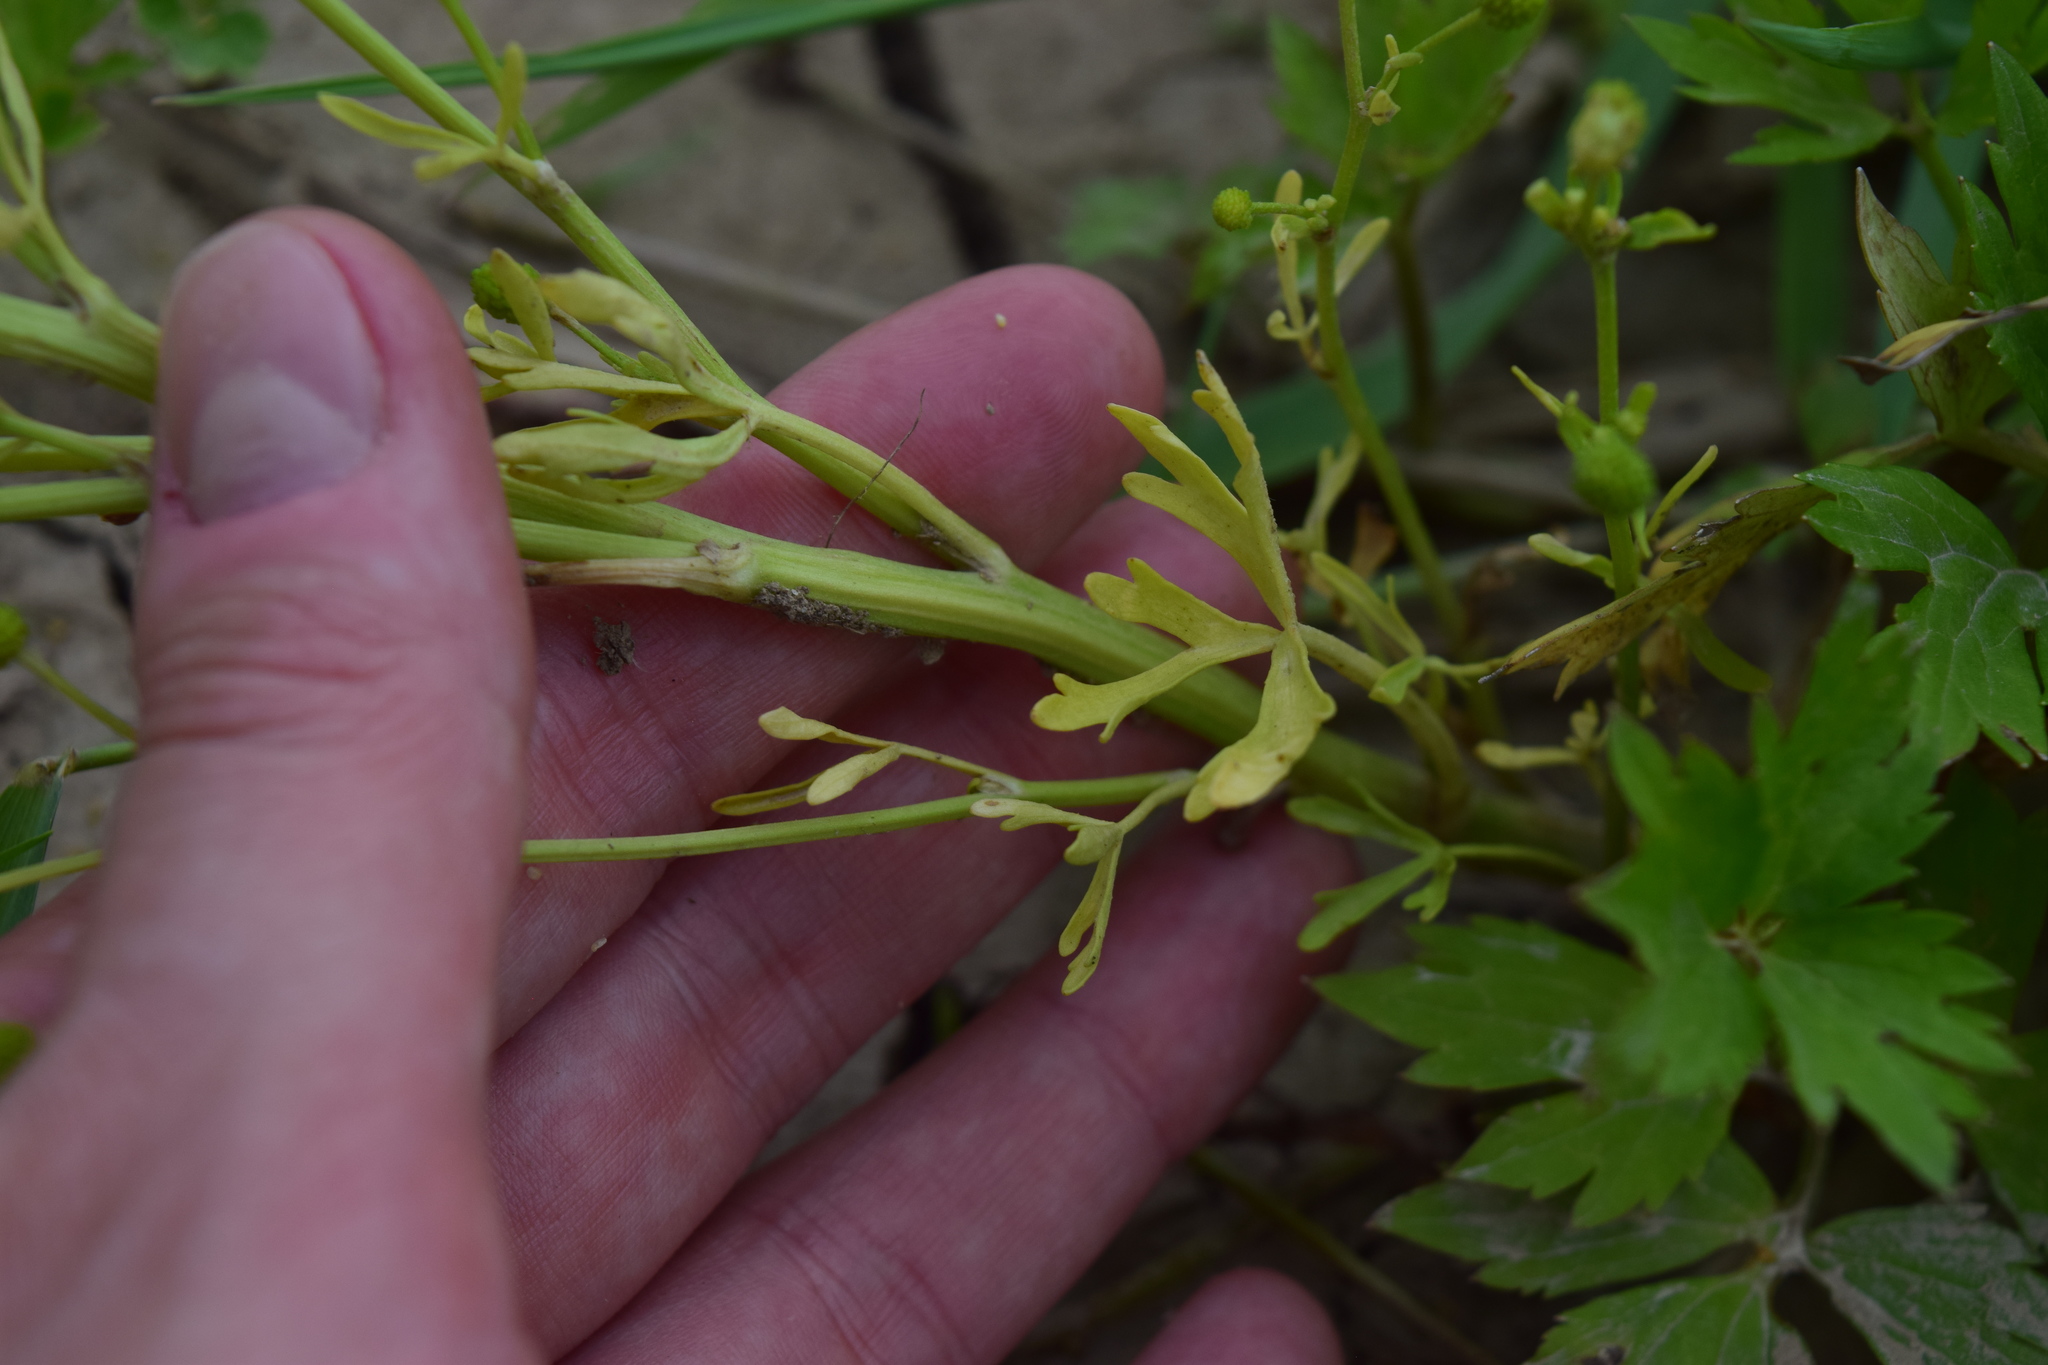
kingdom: Plantae
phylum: Tracheophyta
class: Magnoliopsida
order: Ranunculales
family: Ranunculaceae
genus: Ranunculus
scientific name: Ranunculus sceleratus
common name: Celery-leaved buttercup
